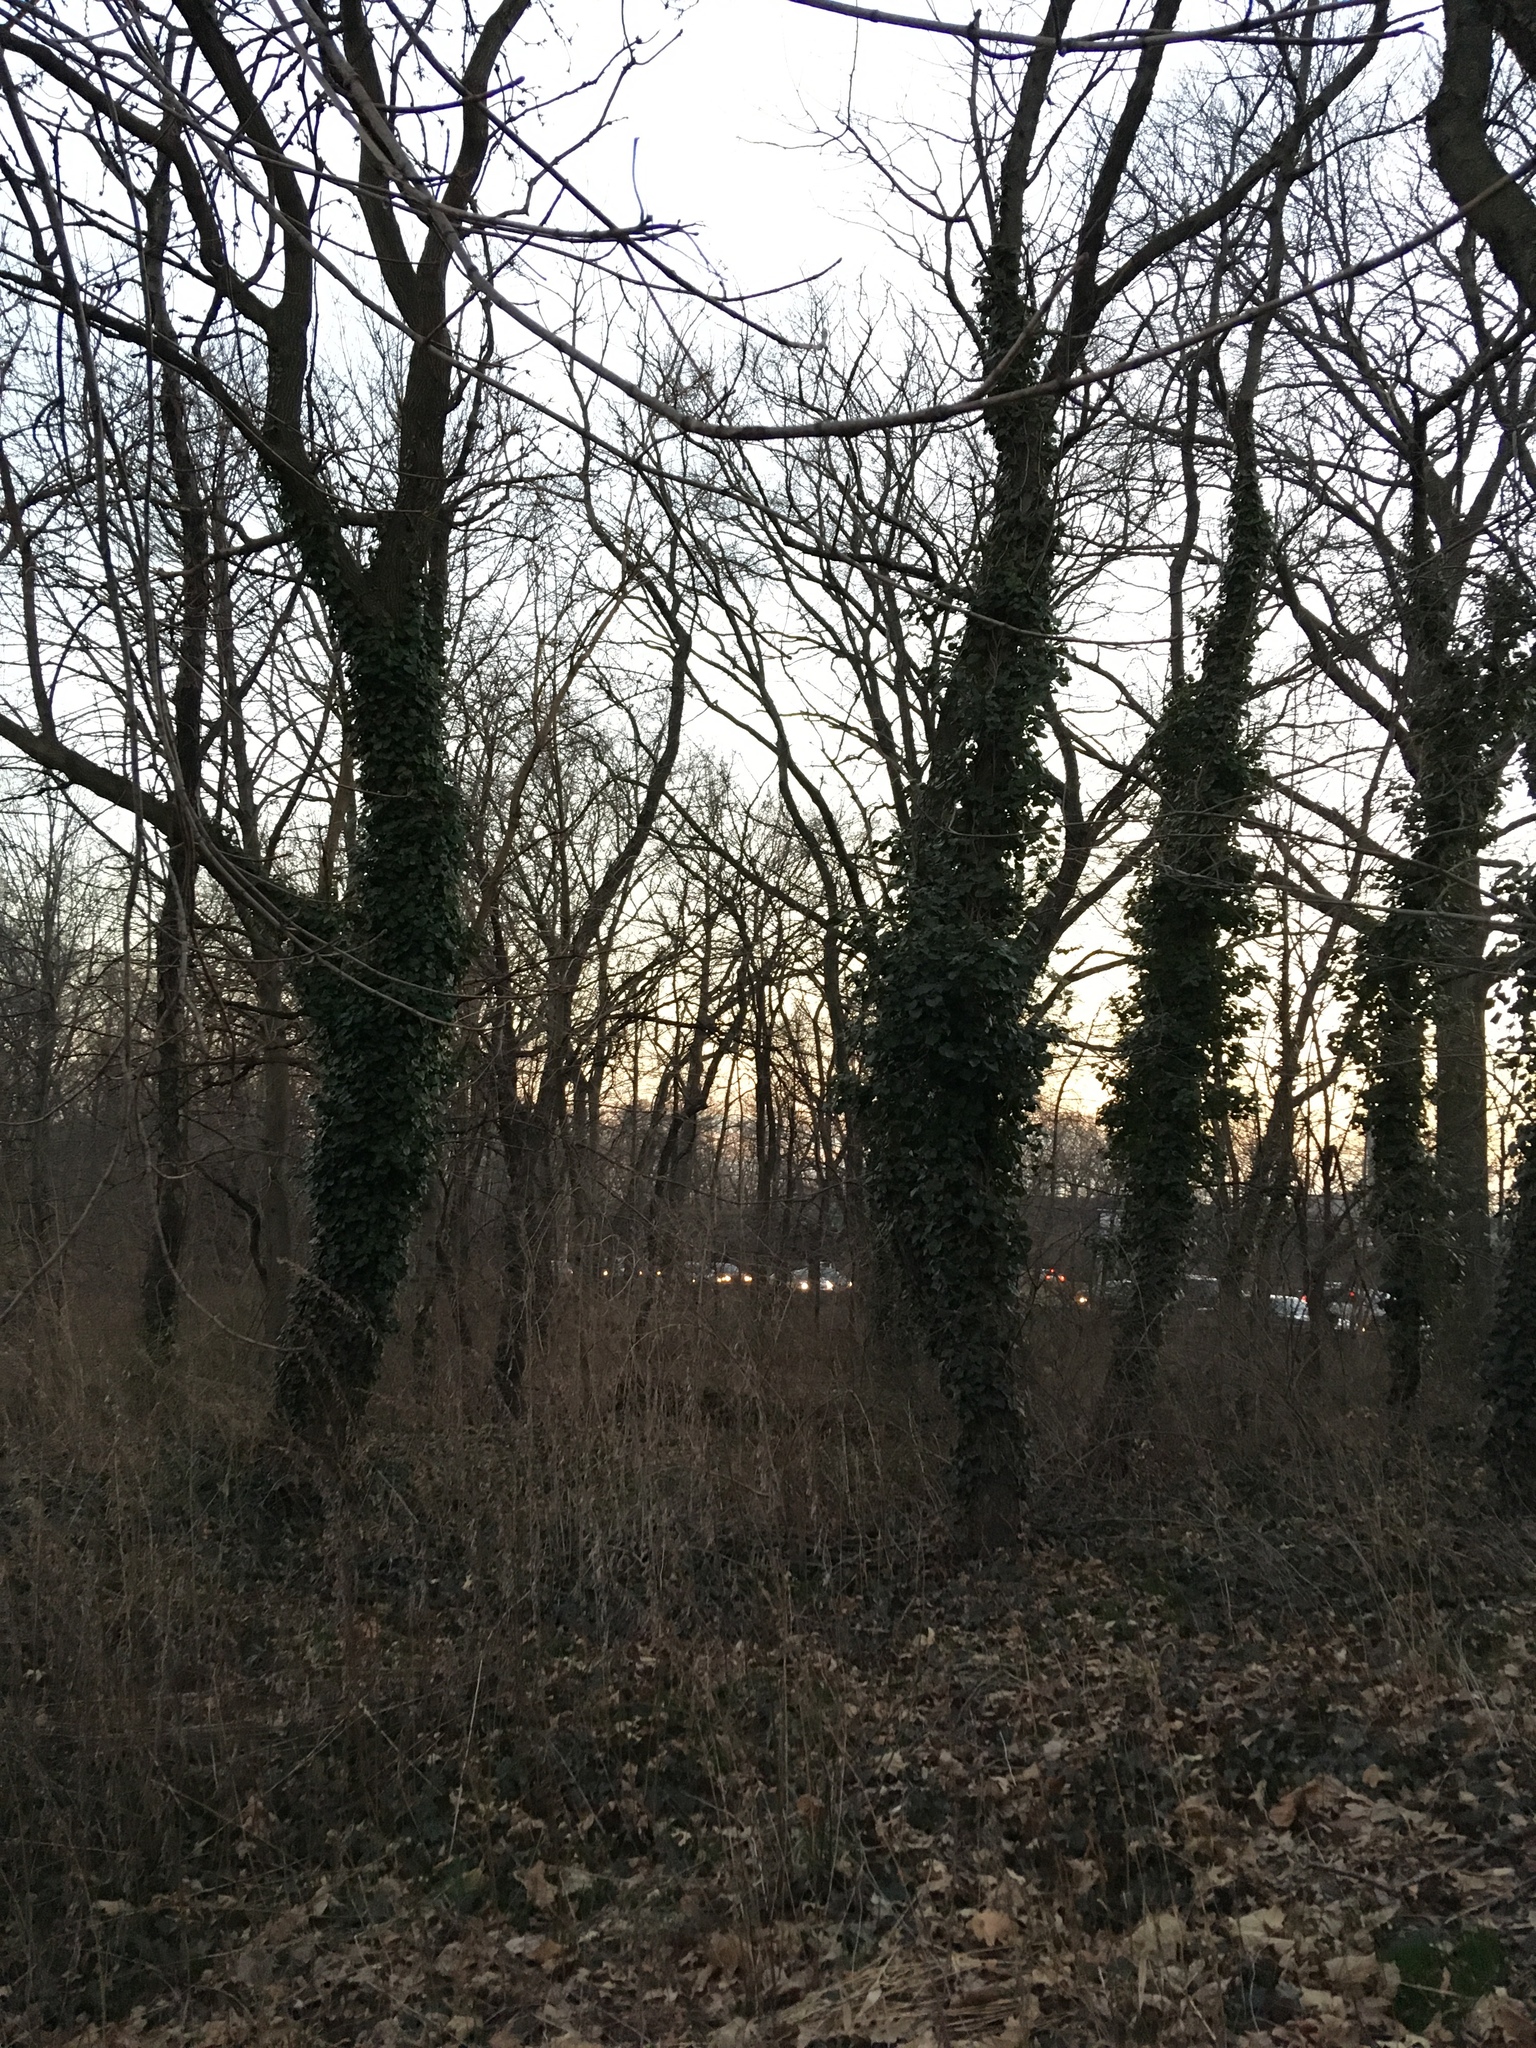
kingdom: Plantae
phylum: Tracheophyta
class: Magnoliopsida
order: Apiales
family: Araliaceae
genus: Hedera
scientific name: Hedera helix
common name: Ivy
